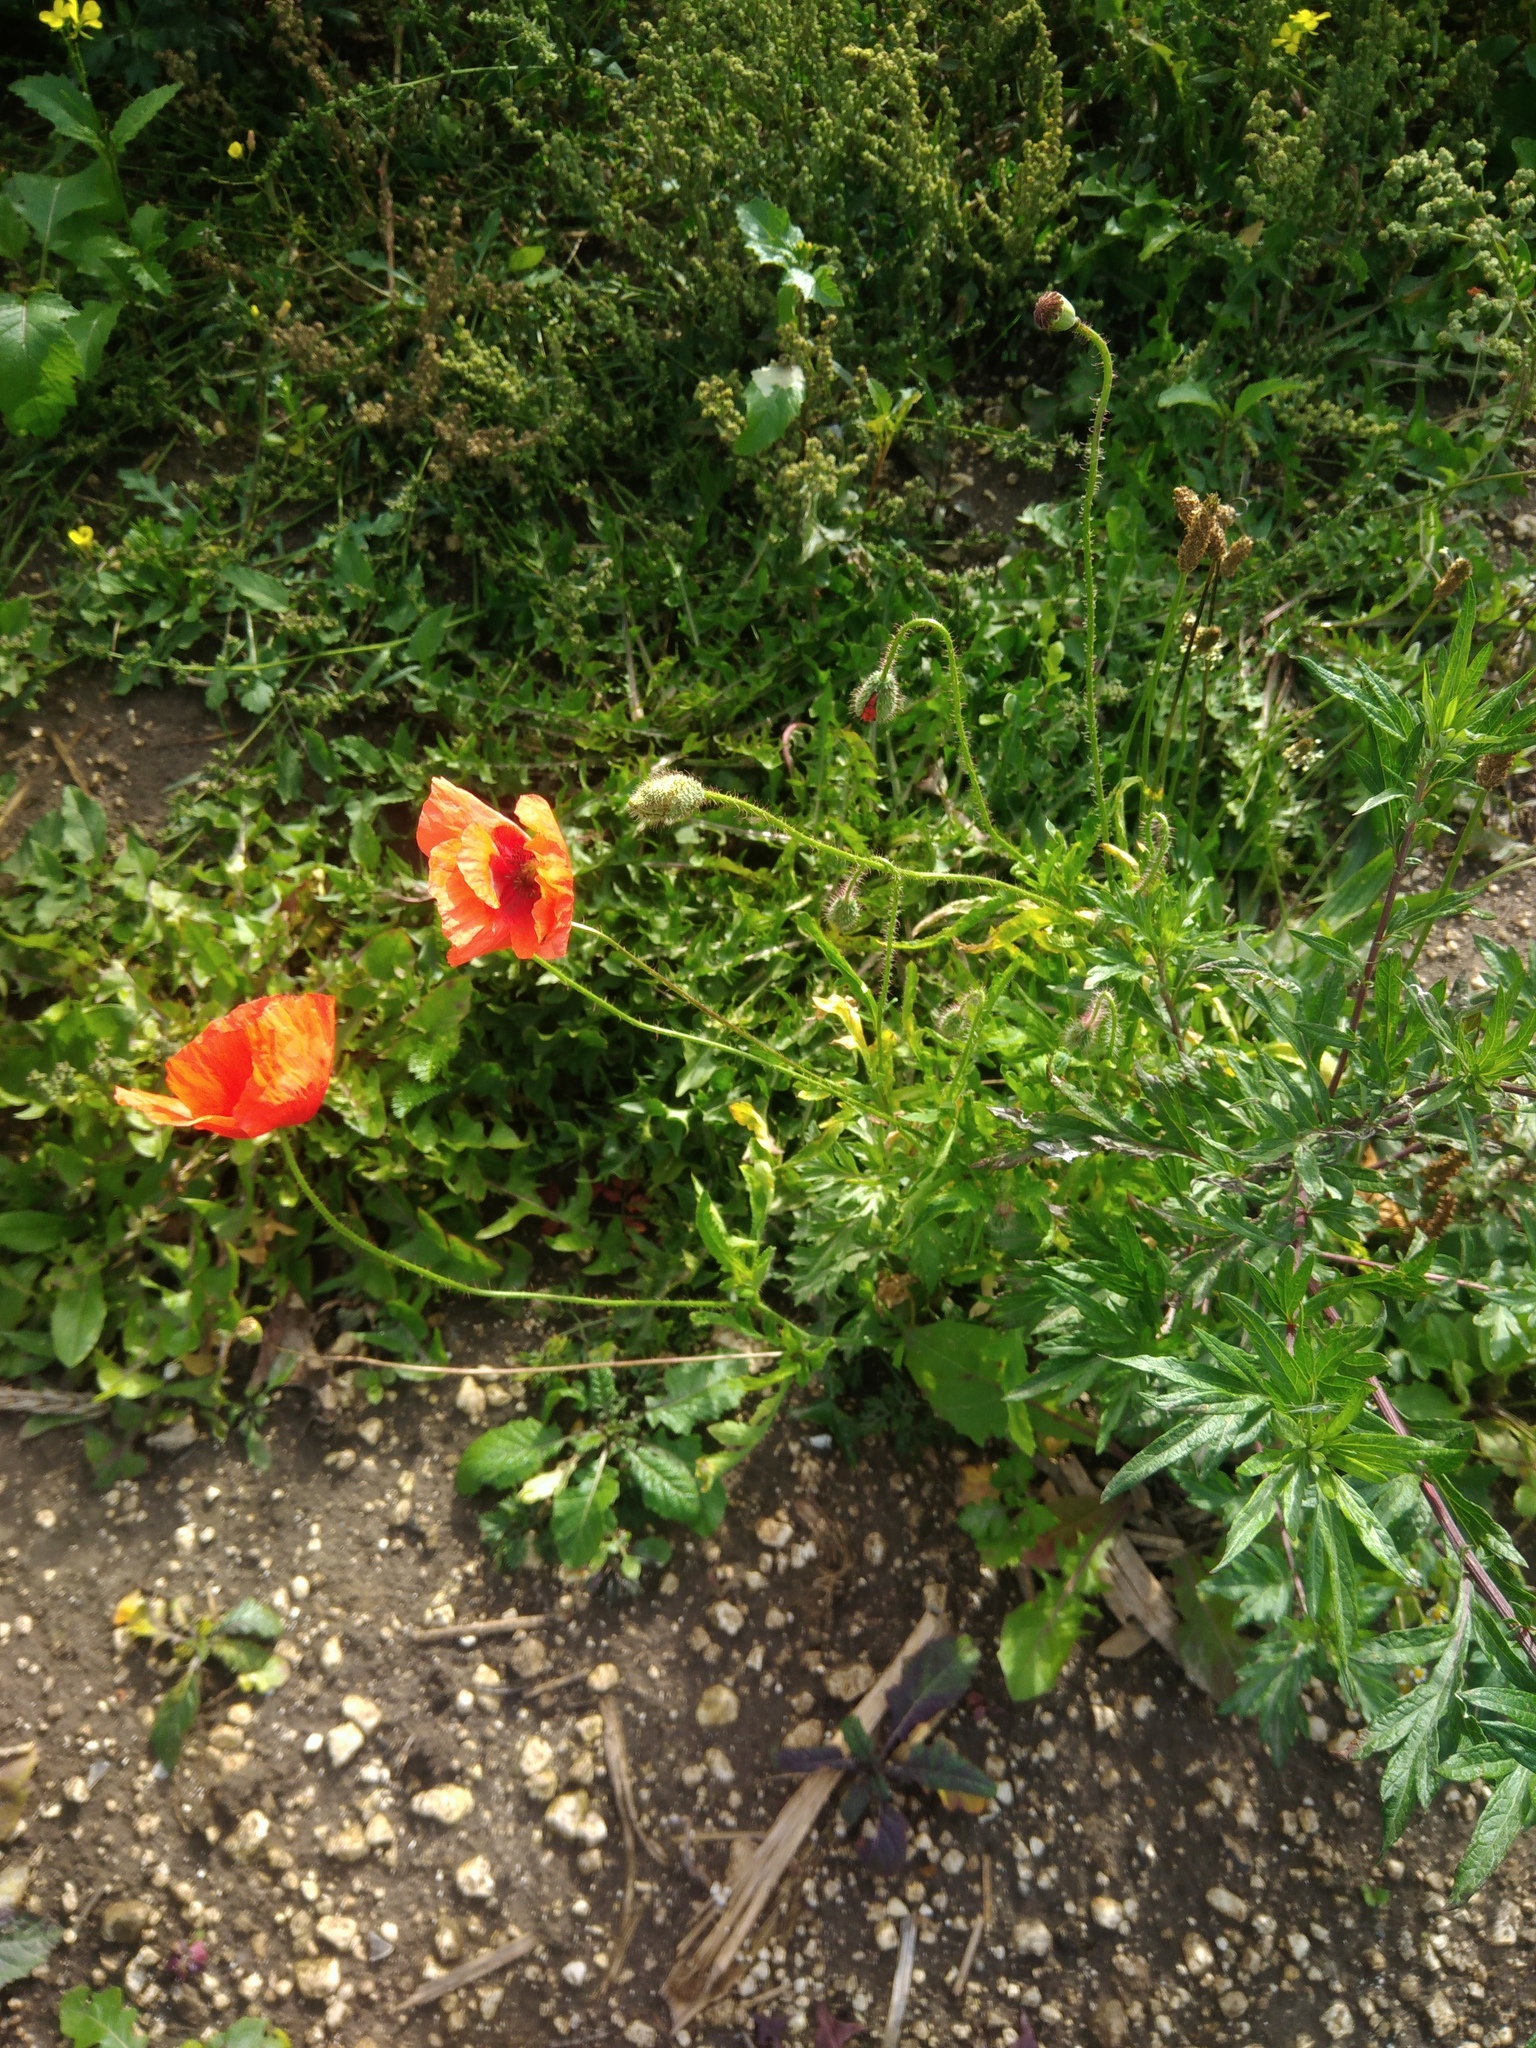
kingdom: Plantae
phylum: Tracheophyta
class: Magnoliopsida
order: Ranunculales
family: Papaveraceae
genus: Papaver
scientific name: Papaver rhoeas
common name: Corn poppy
